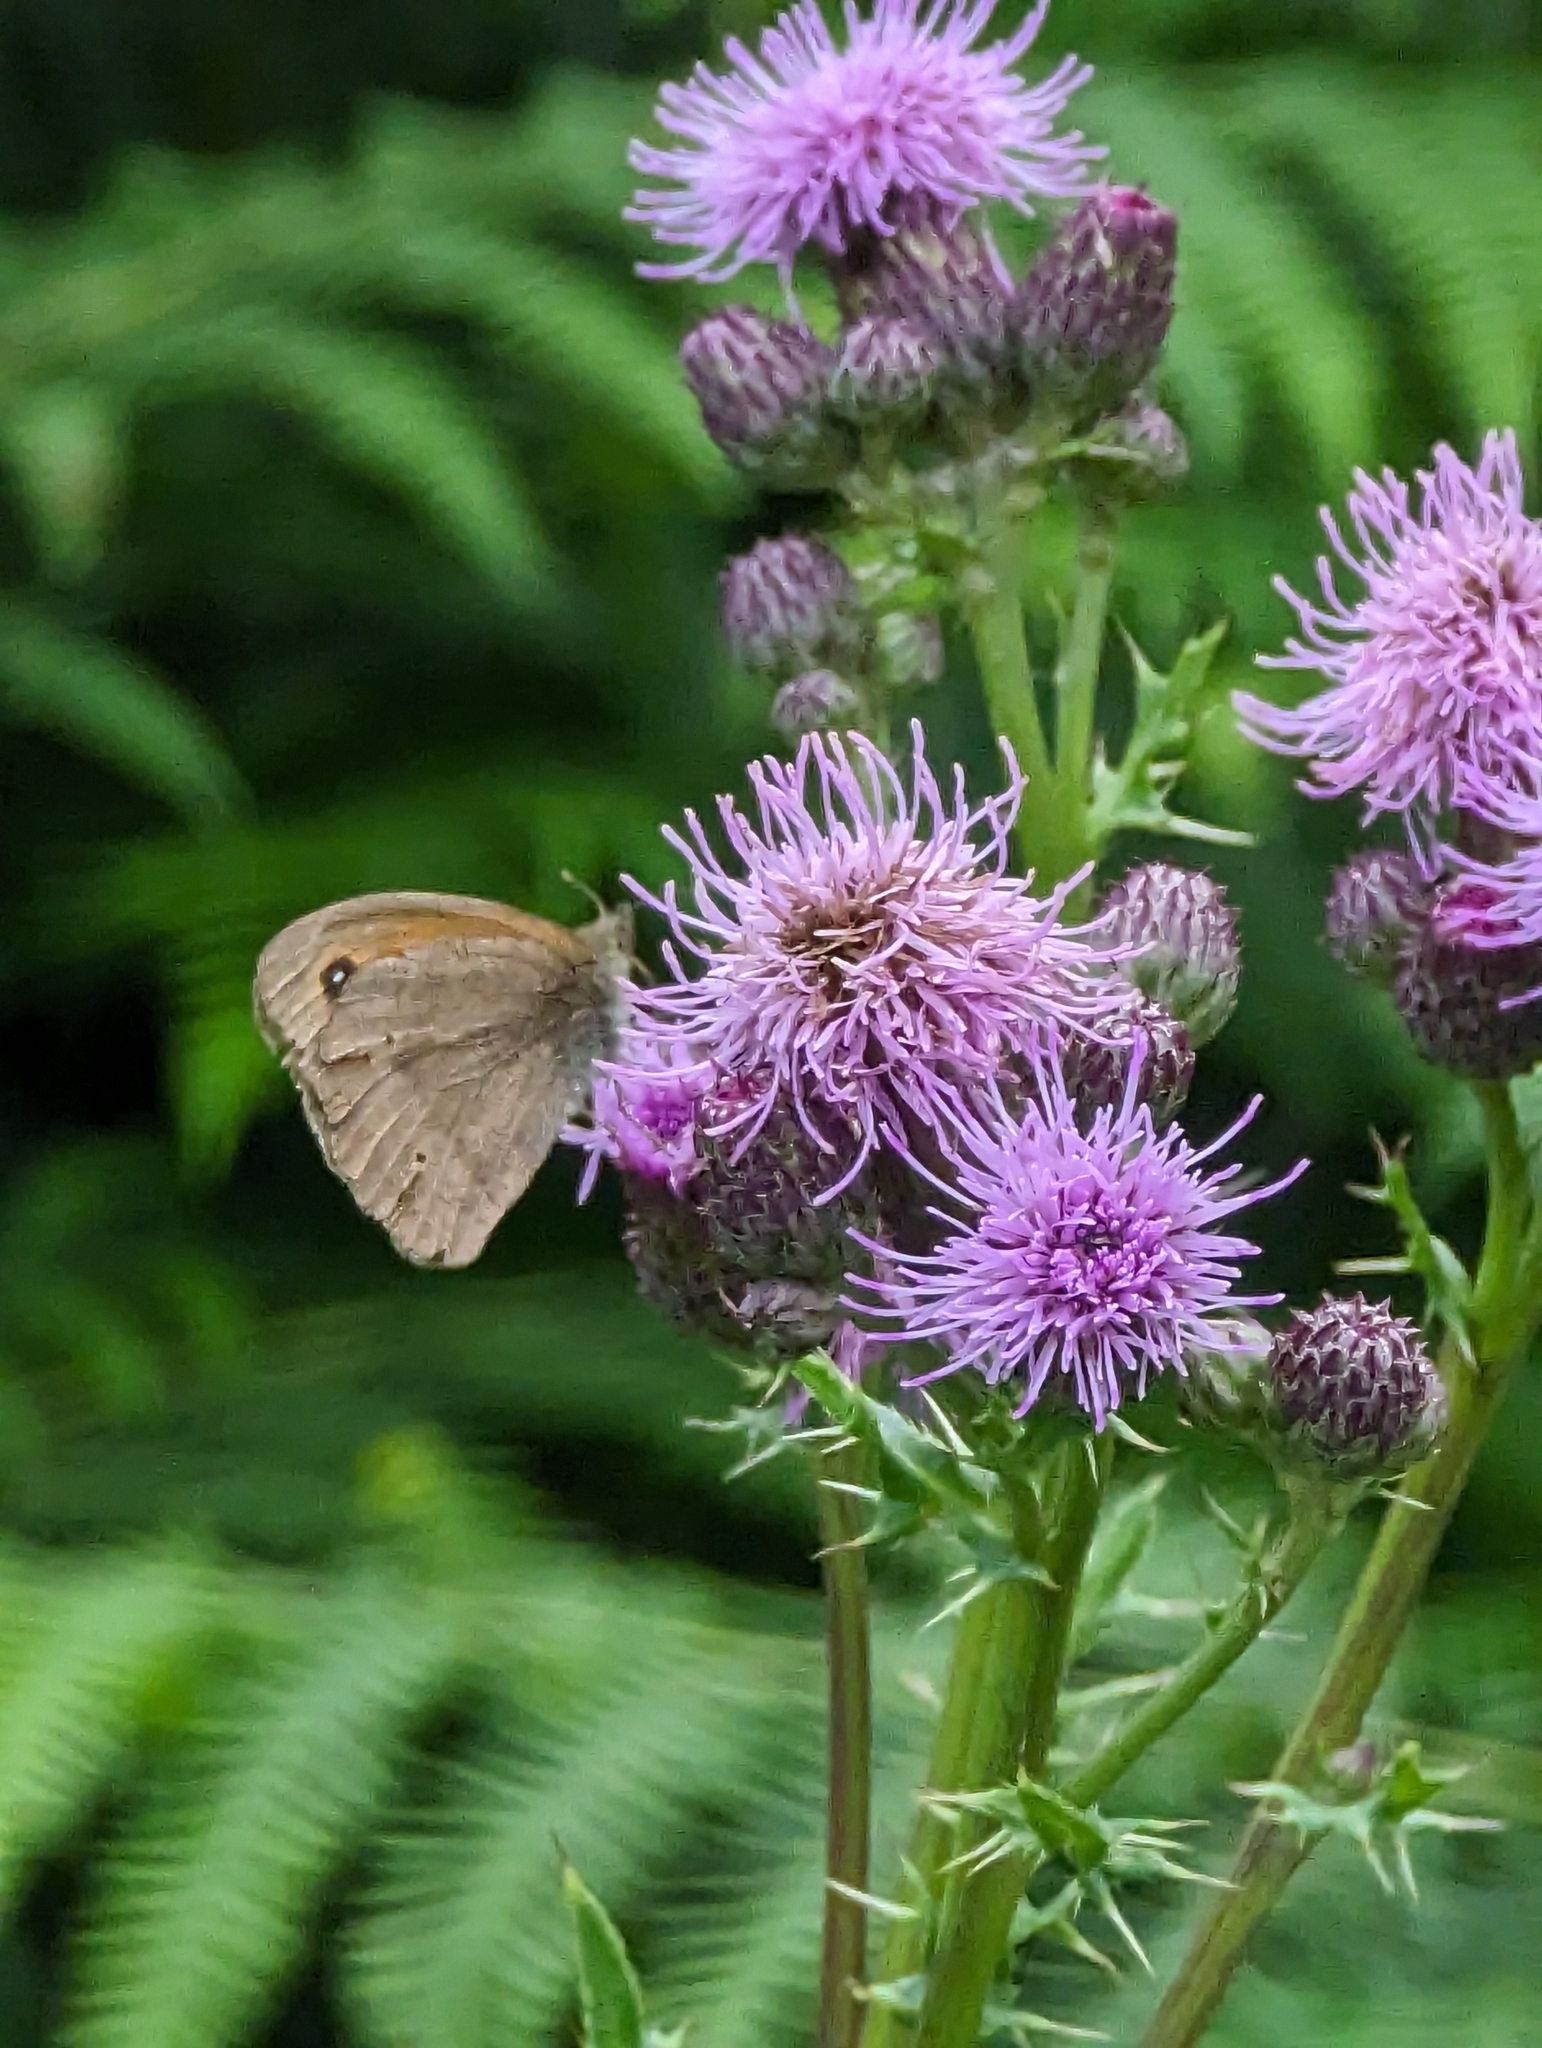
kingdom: Animalia
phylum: Arthropoda
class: Insecta
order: Lepidoptera
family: Nymphalidae
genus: Maniola
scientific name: Maniola jurtina
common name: Meadow brown
